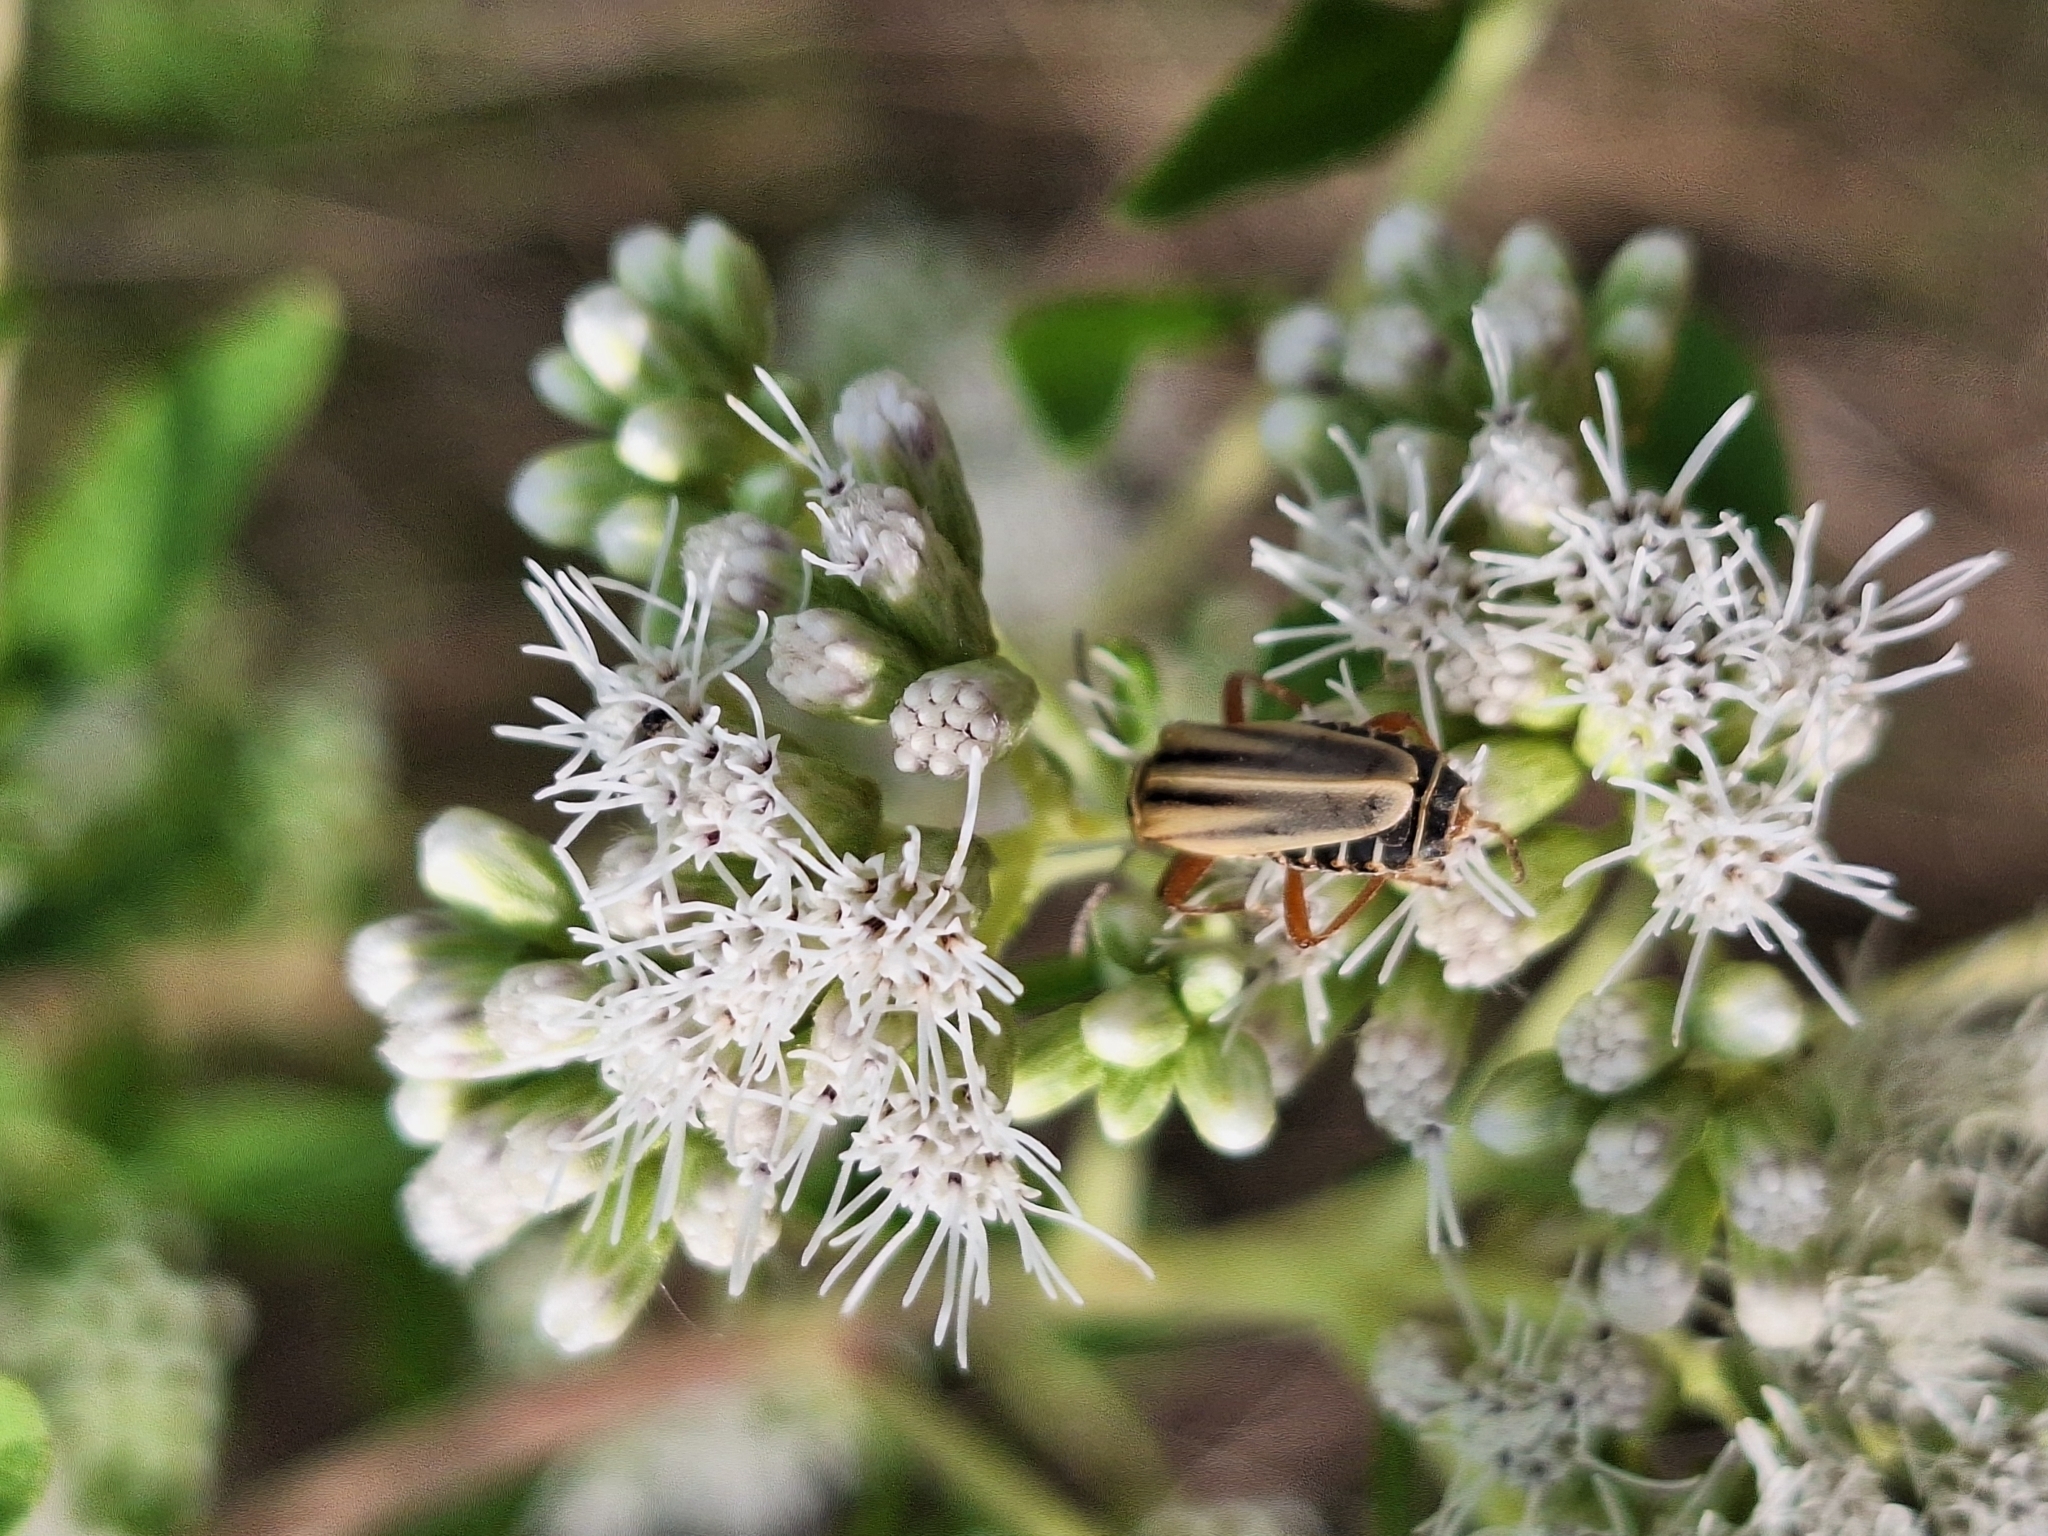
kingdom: Animalia
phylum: Arthropoda
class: Insecta
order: Coleoptera
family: Cantharidae
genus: Chauliognathus
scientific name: Chauliognathus
